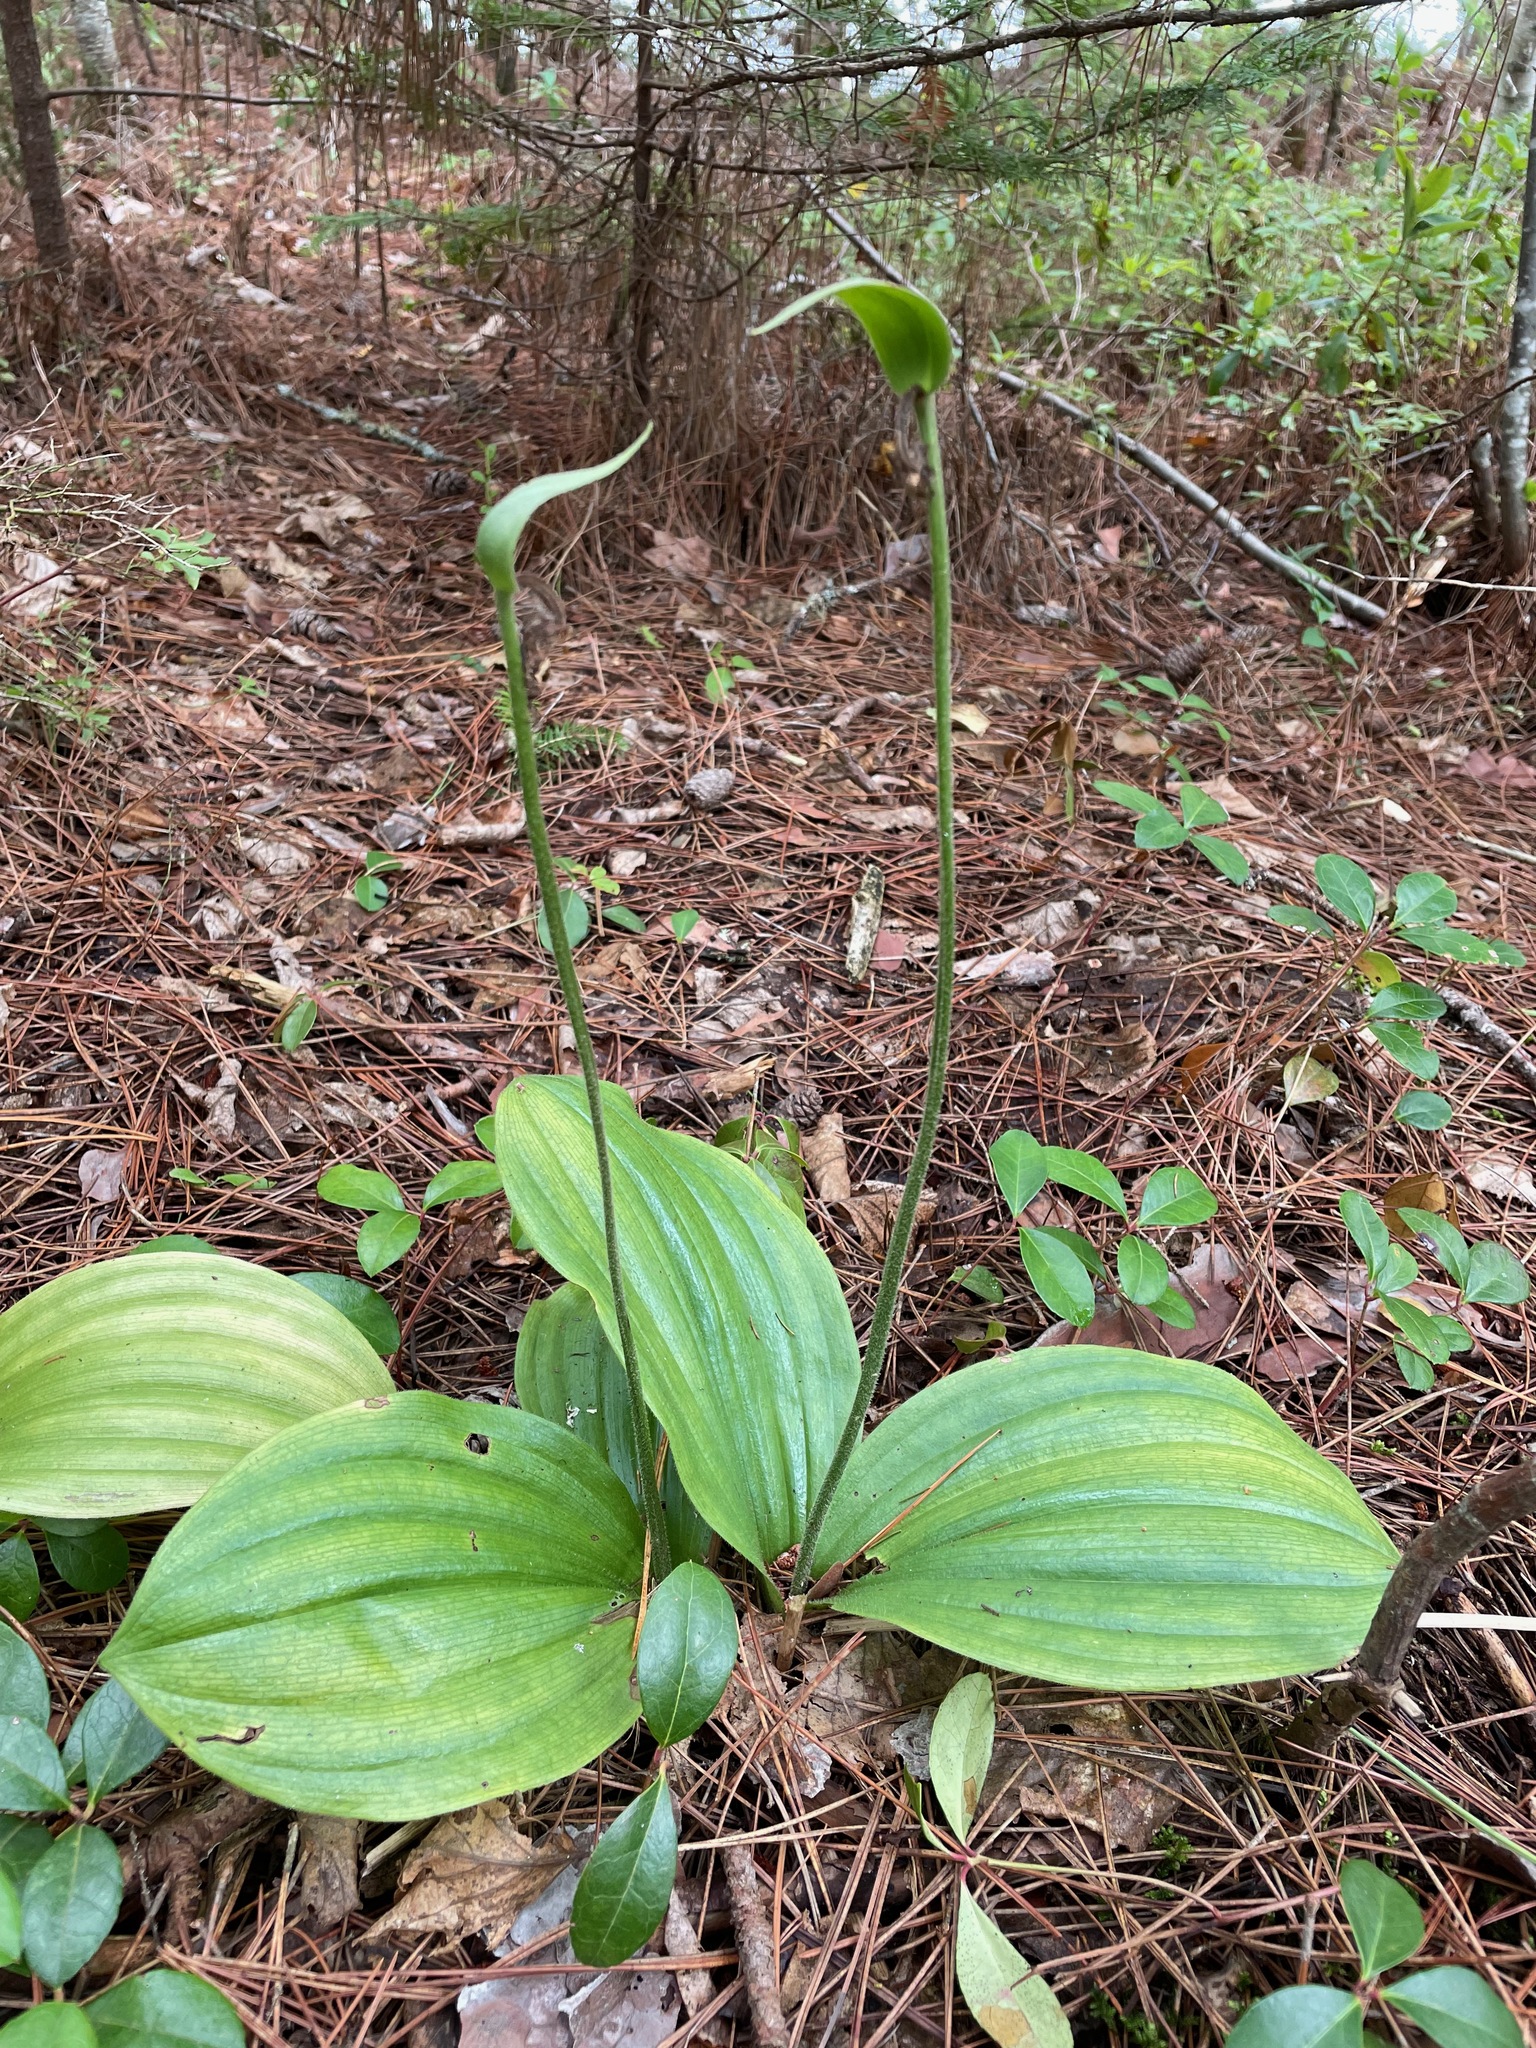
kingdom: Plantae
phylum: Tracheophyta
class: Liliopsida
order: Asparagales
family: Orchidaceae
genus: Cypripedium
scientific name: Cypripedium acaule
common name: Pink lady's-slipper
